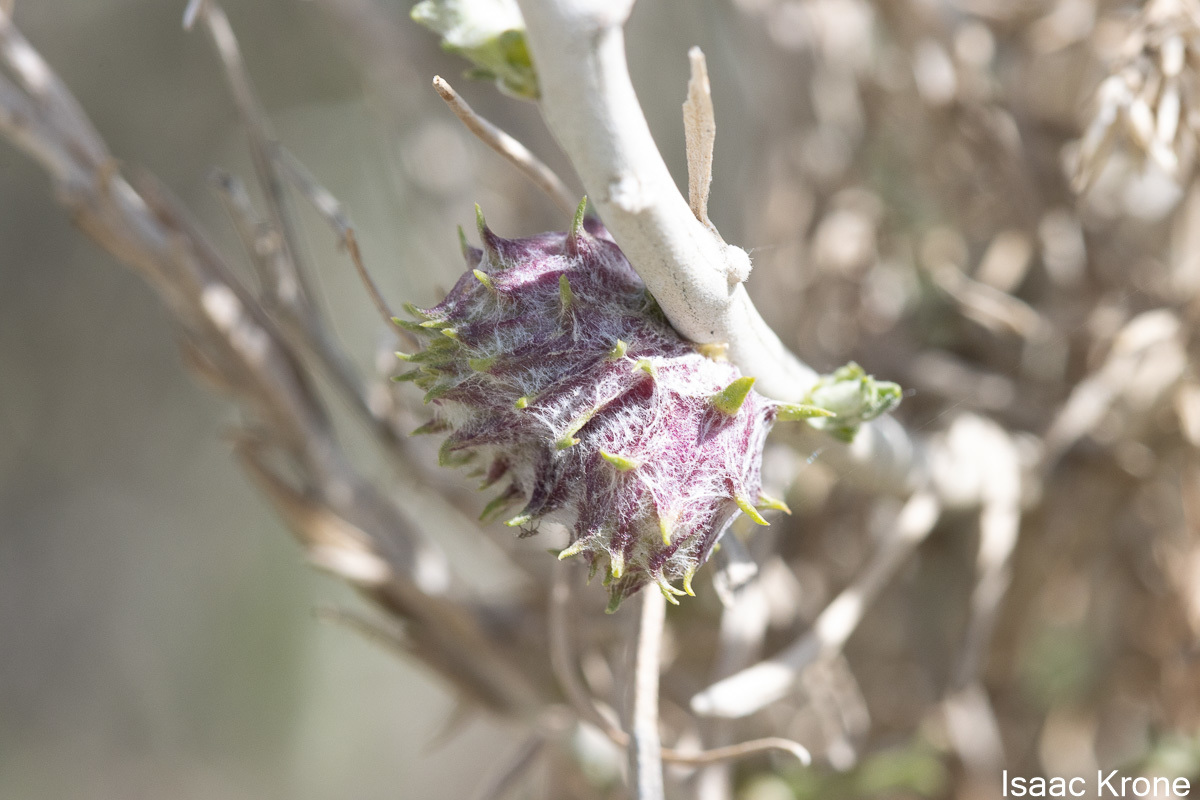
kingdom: Animalia
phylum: Arthropoda
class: Insecta
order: Diptera
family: Cecidomyiidae
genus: Rhopalomyia
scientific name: Rhopalomyia utahensis
